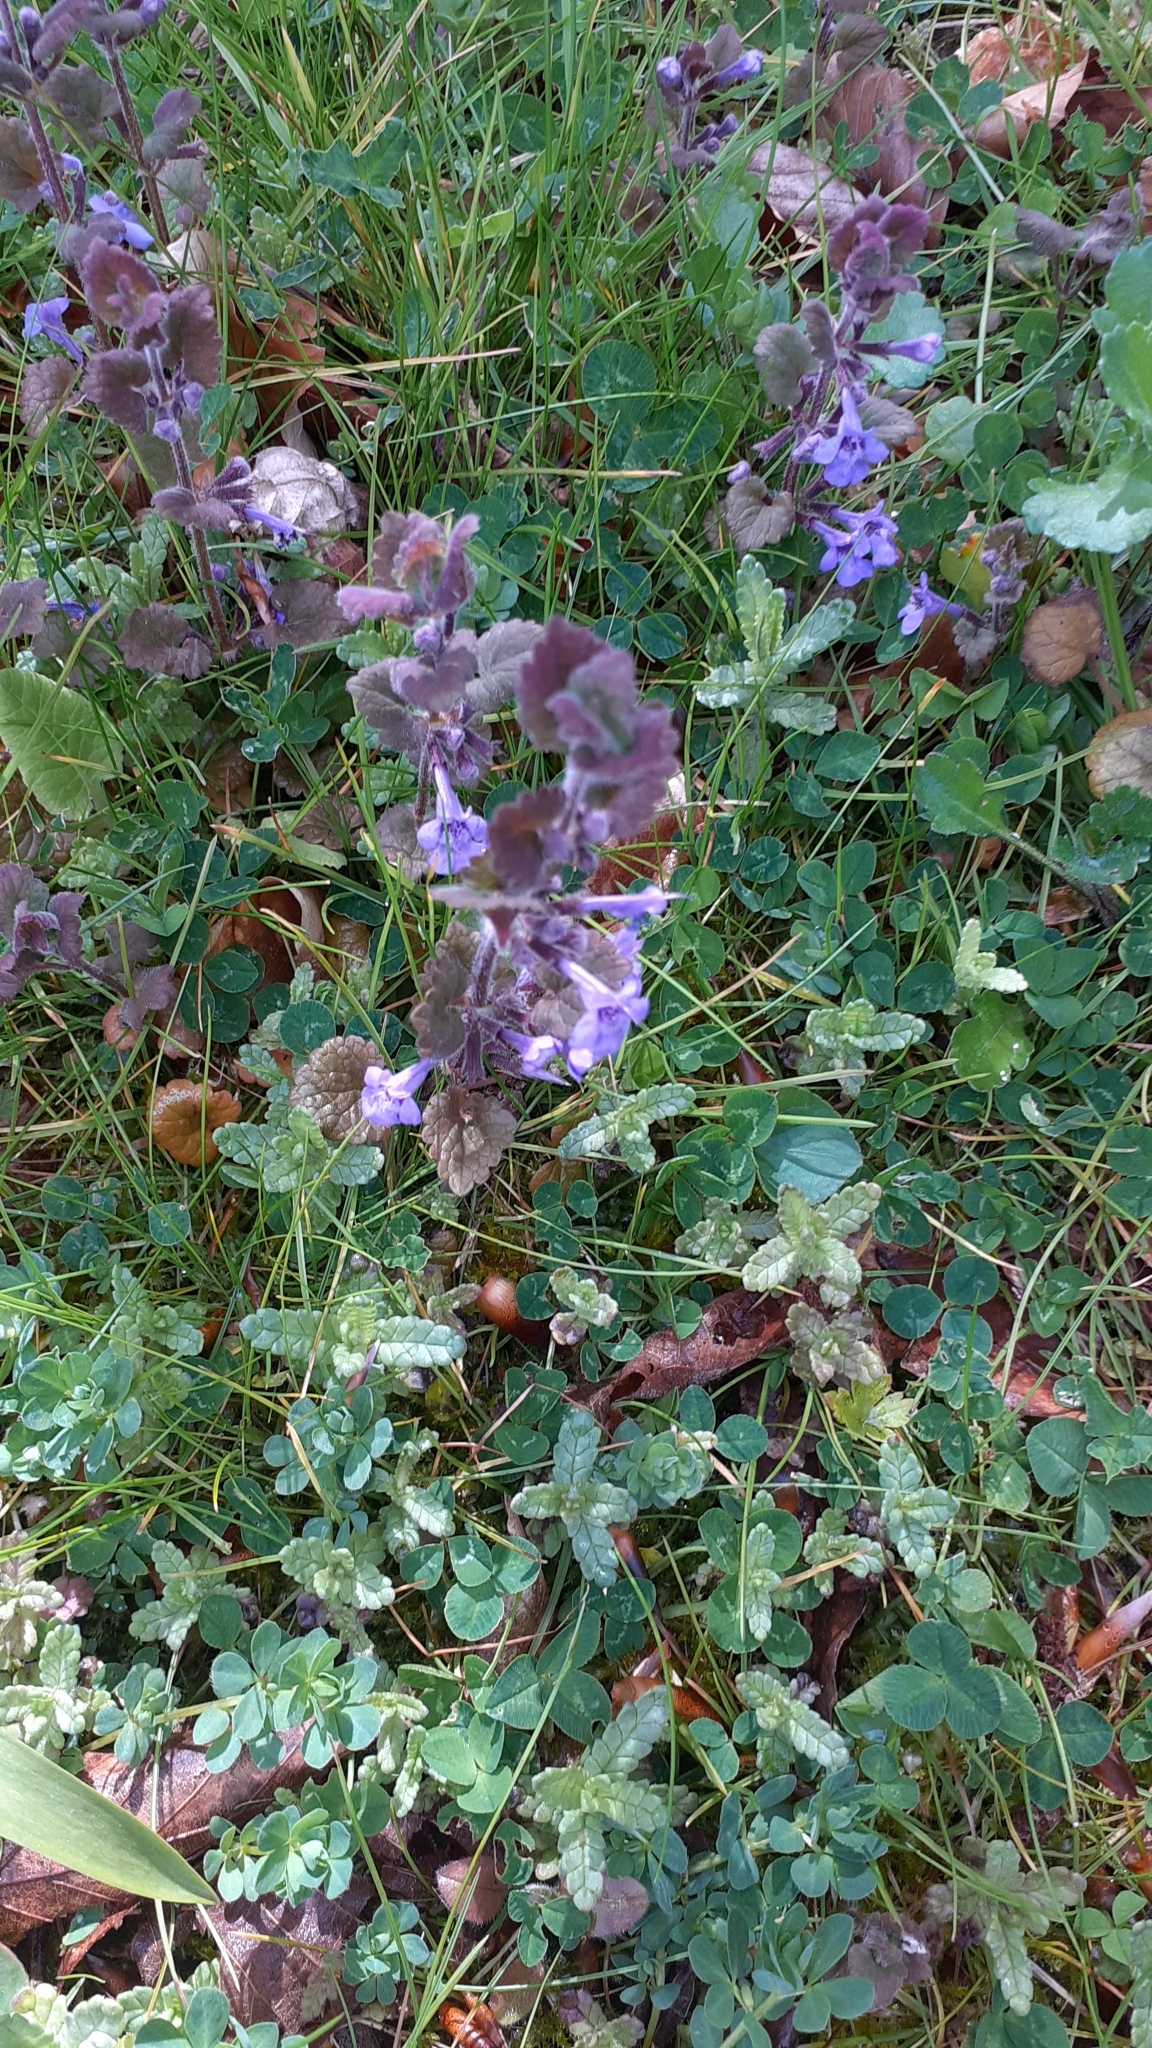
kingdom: Plantae
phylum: Tracheophyta
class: Magnoliopsida
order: Lamiales
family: Lamiaceae
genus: Glechoma
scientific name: Glechoma hederacea
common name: Ground ivy
